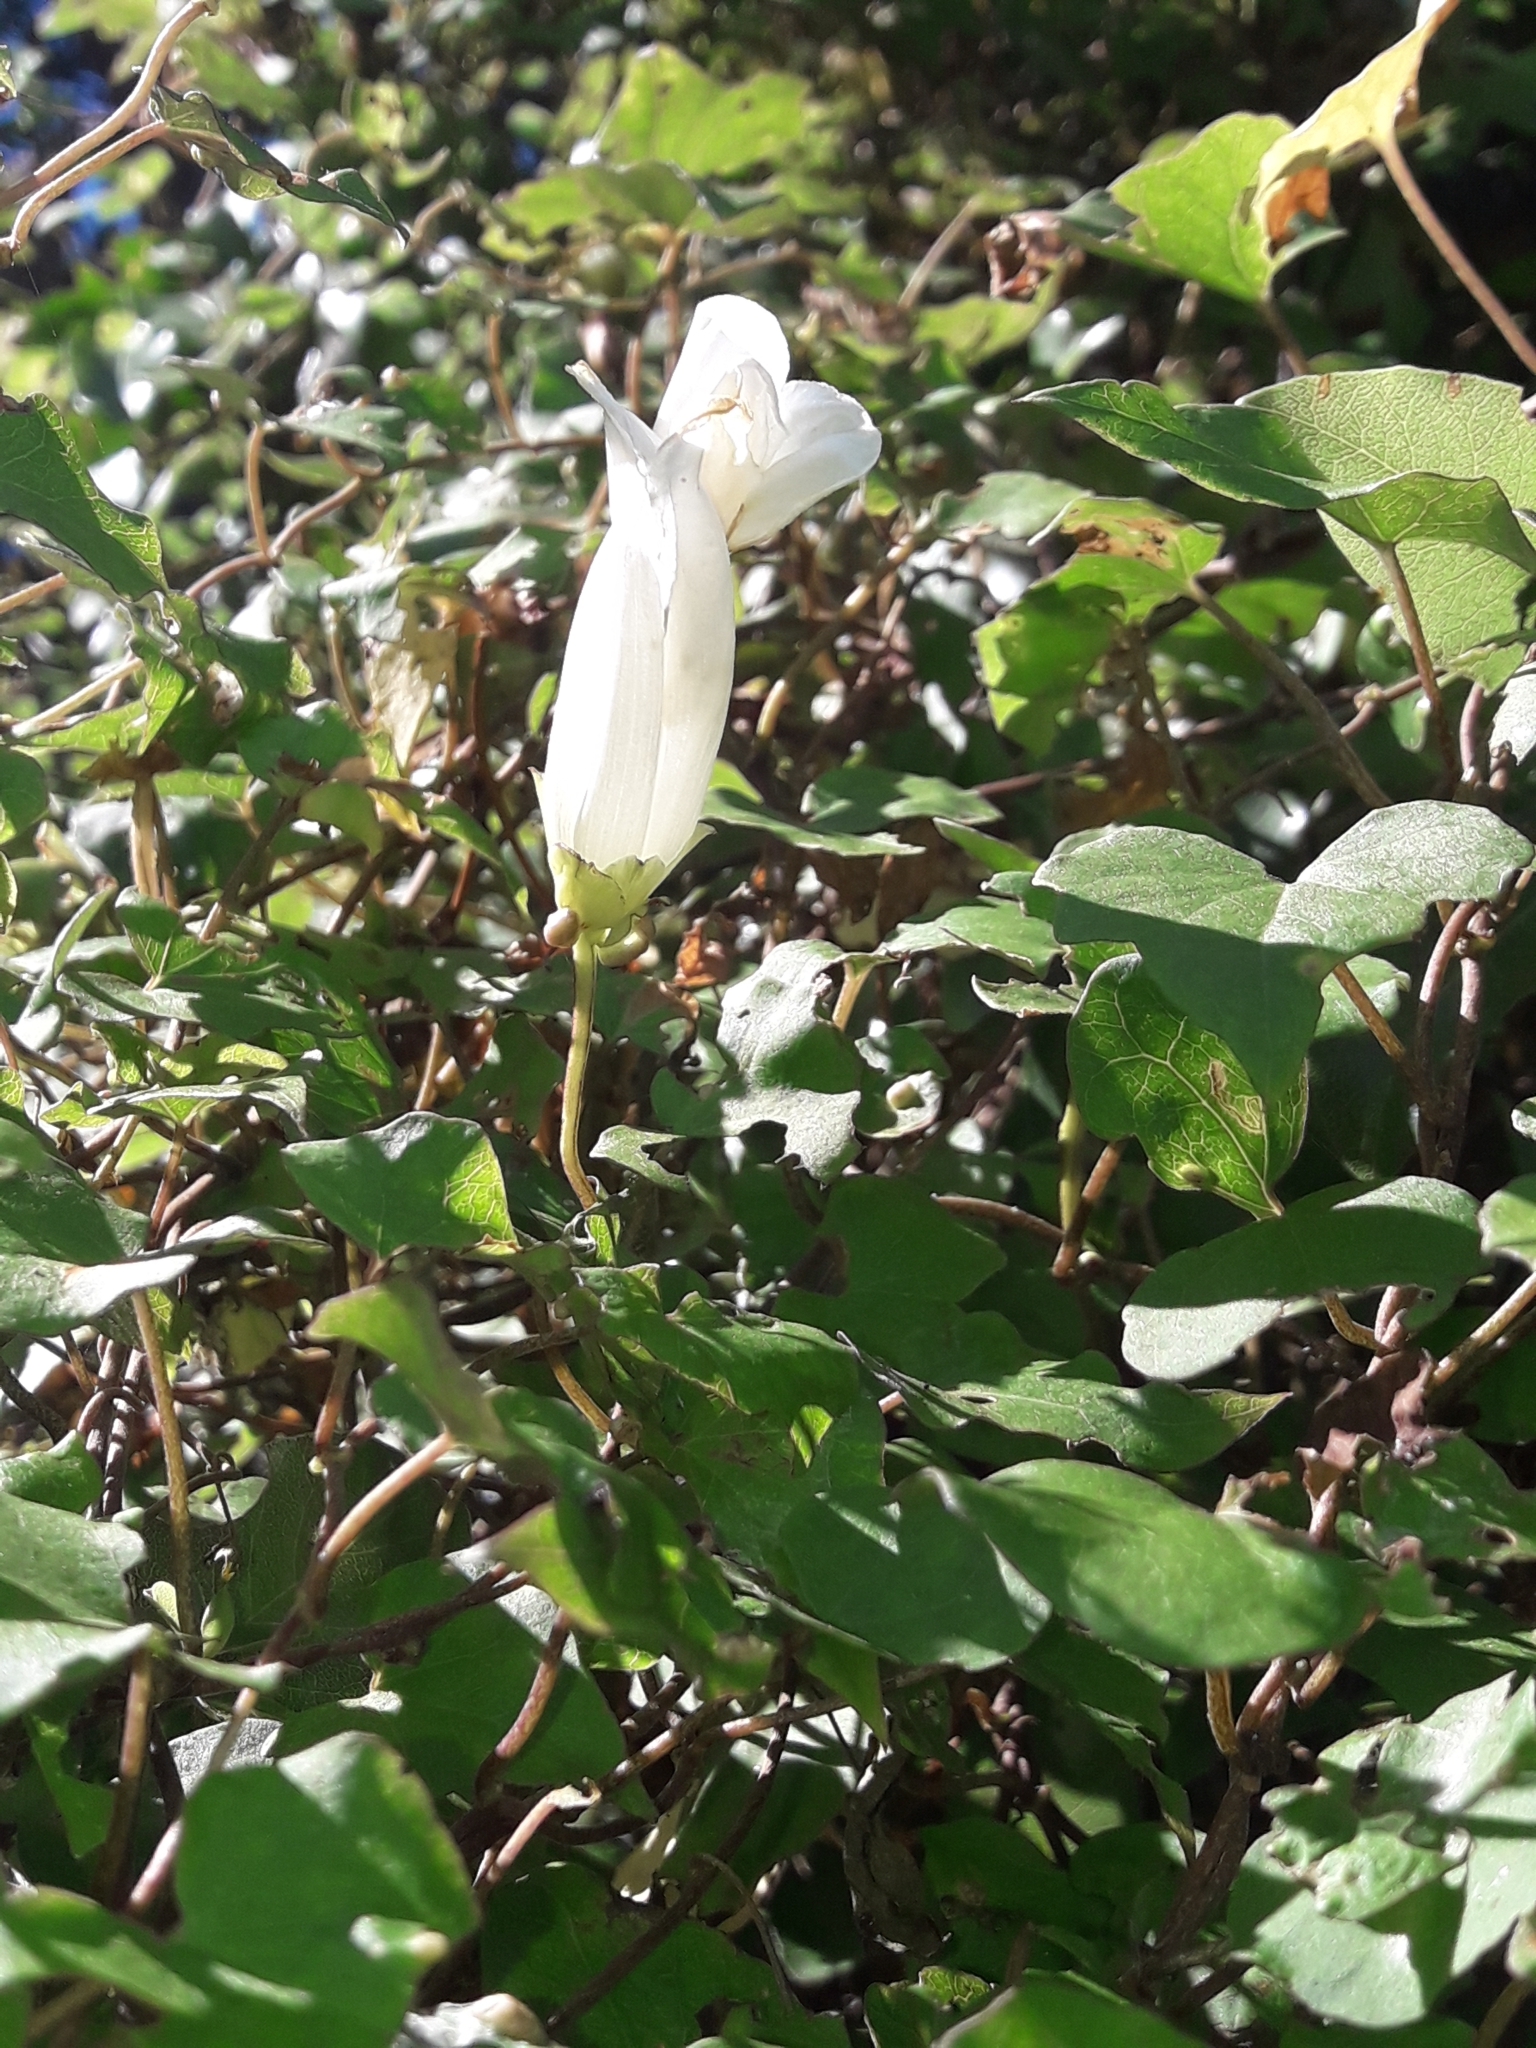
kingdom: Plantae
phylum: Tracheophyta
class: Magnoliopsida
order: Solanales
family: Convolvulaceae
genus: Calystegia
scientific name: Calystegia tuguriorum
